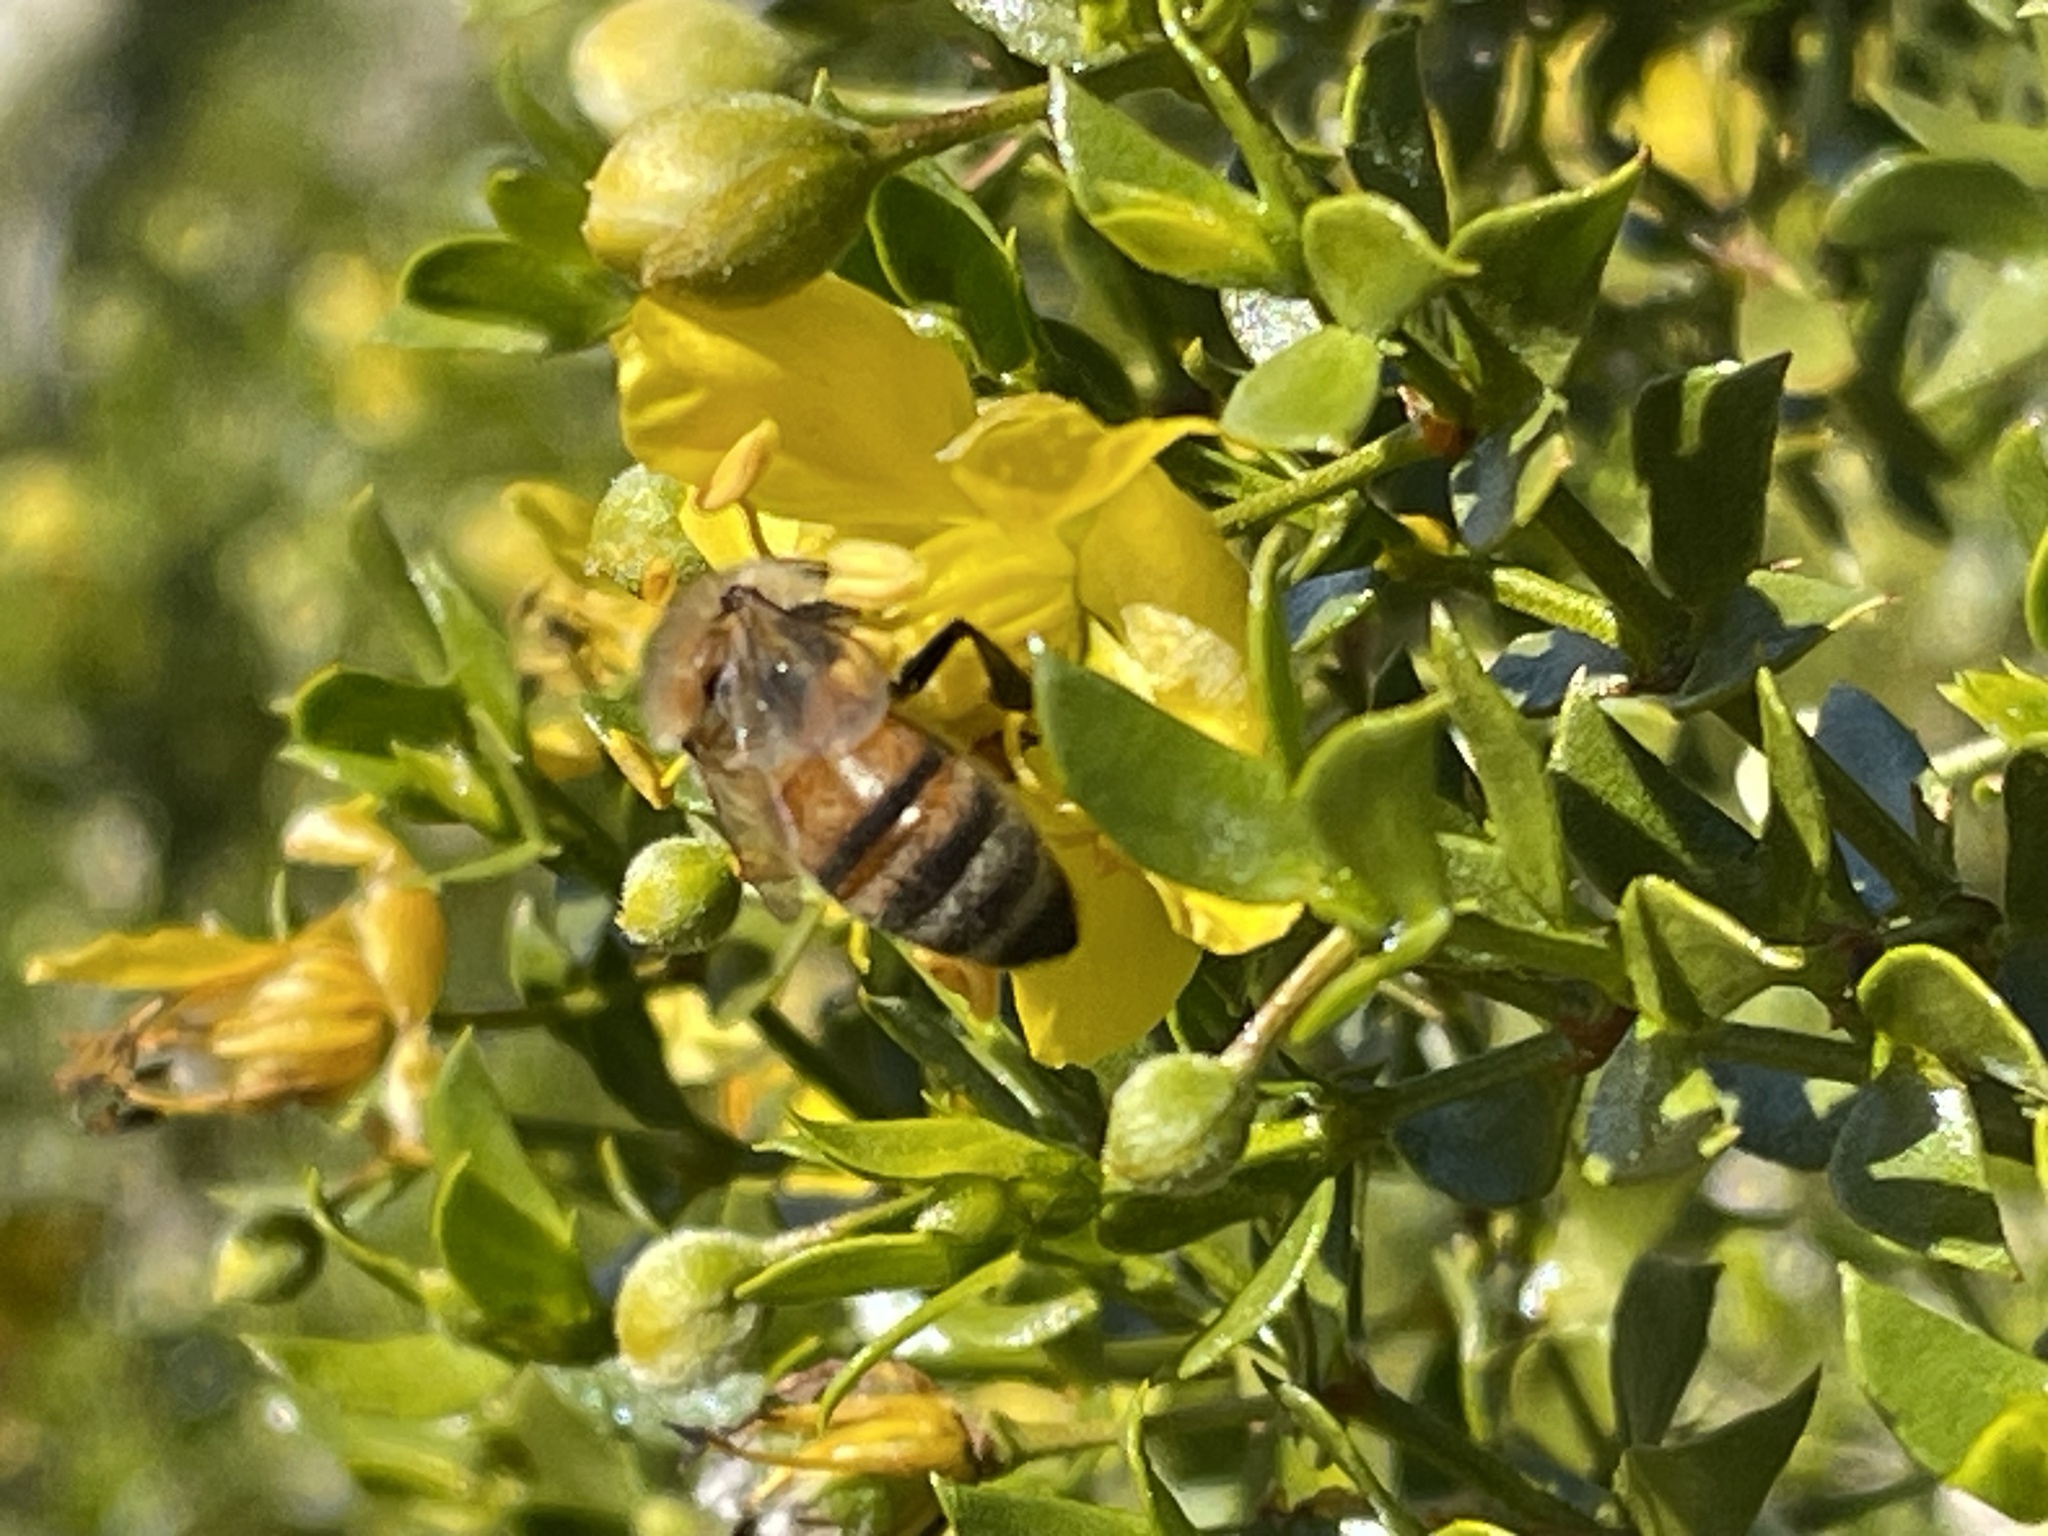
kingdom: Plantae
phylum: Tracheophyta
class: Magnoliopsida
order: Zygophyllales
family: Zygophyllaceae
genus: Larrea
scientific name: Larrea tridentata
